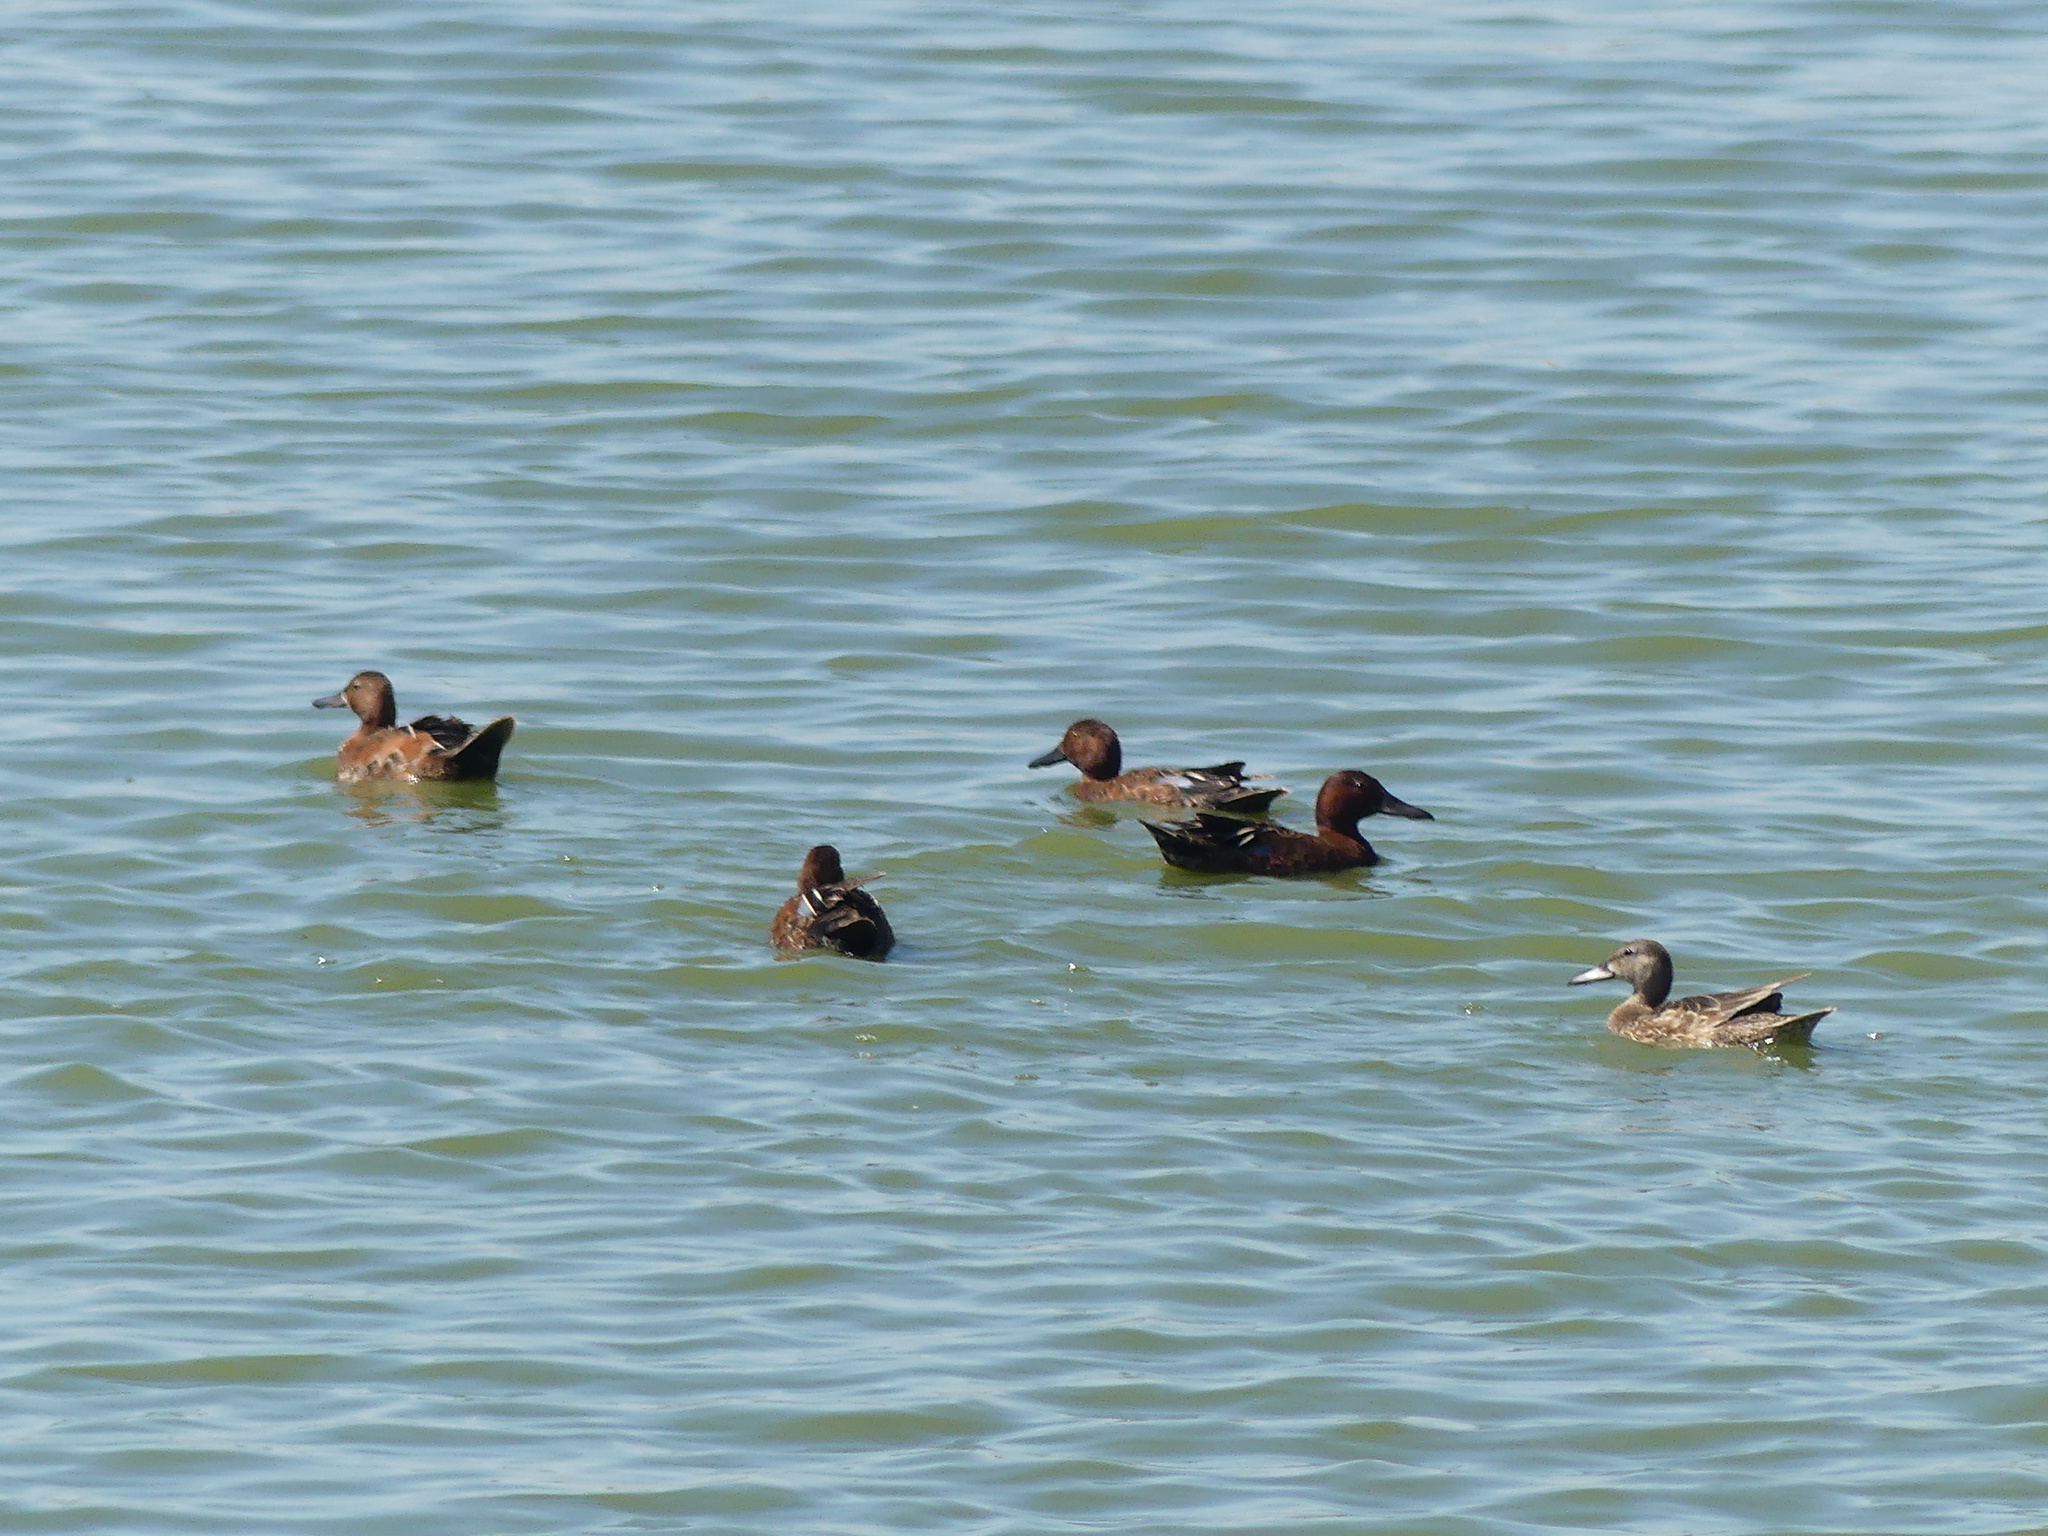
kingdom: Animalia
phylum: Chordata
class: Aves
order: Anseriformes
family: Anatidae
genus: Spatula
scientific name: Spatula cyanoptera
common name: Cinnamon teal
